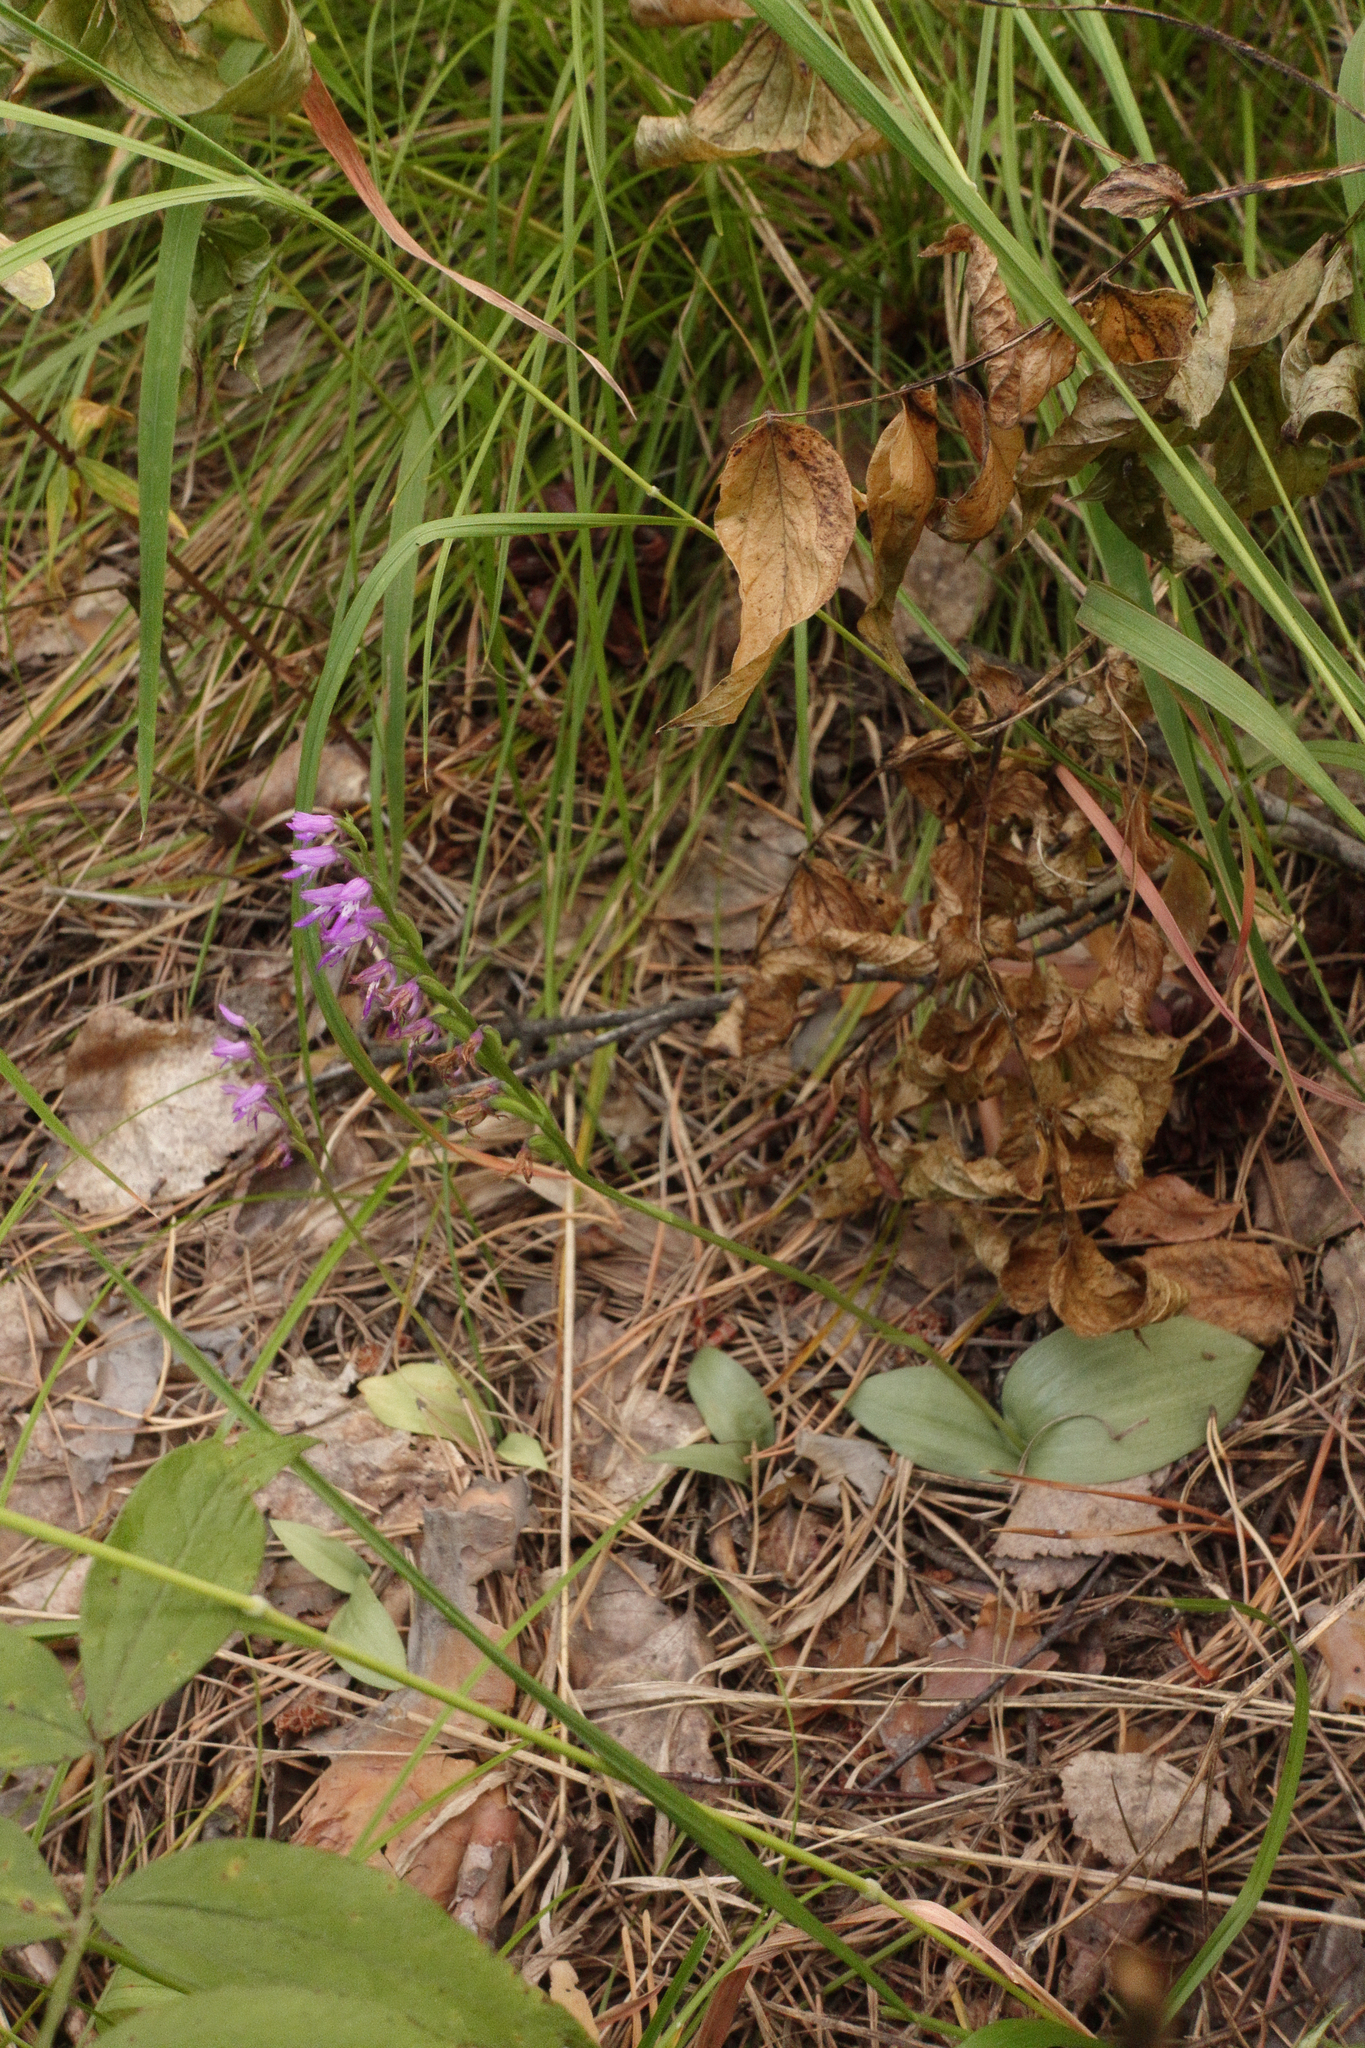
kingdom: Plantae
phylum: Tracheophyta
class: Liliopsida
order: Asparagales
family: Orchidaceae
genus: Hemipilia
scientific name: Hemipilia cucullata
